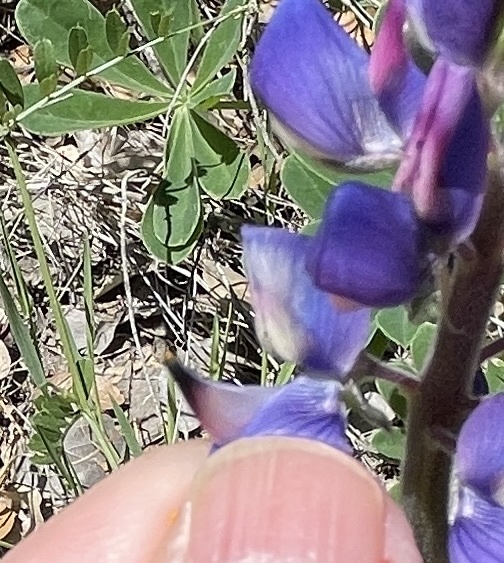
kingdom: Plantae
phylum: Tracheophyta
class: Magnoliopsida
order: Fabales
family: Fabaceae
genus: Lupinus
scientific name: Lupinus succulentus
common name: Arroyo lupine
